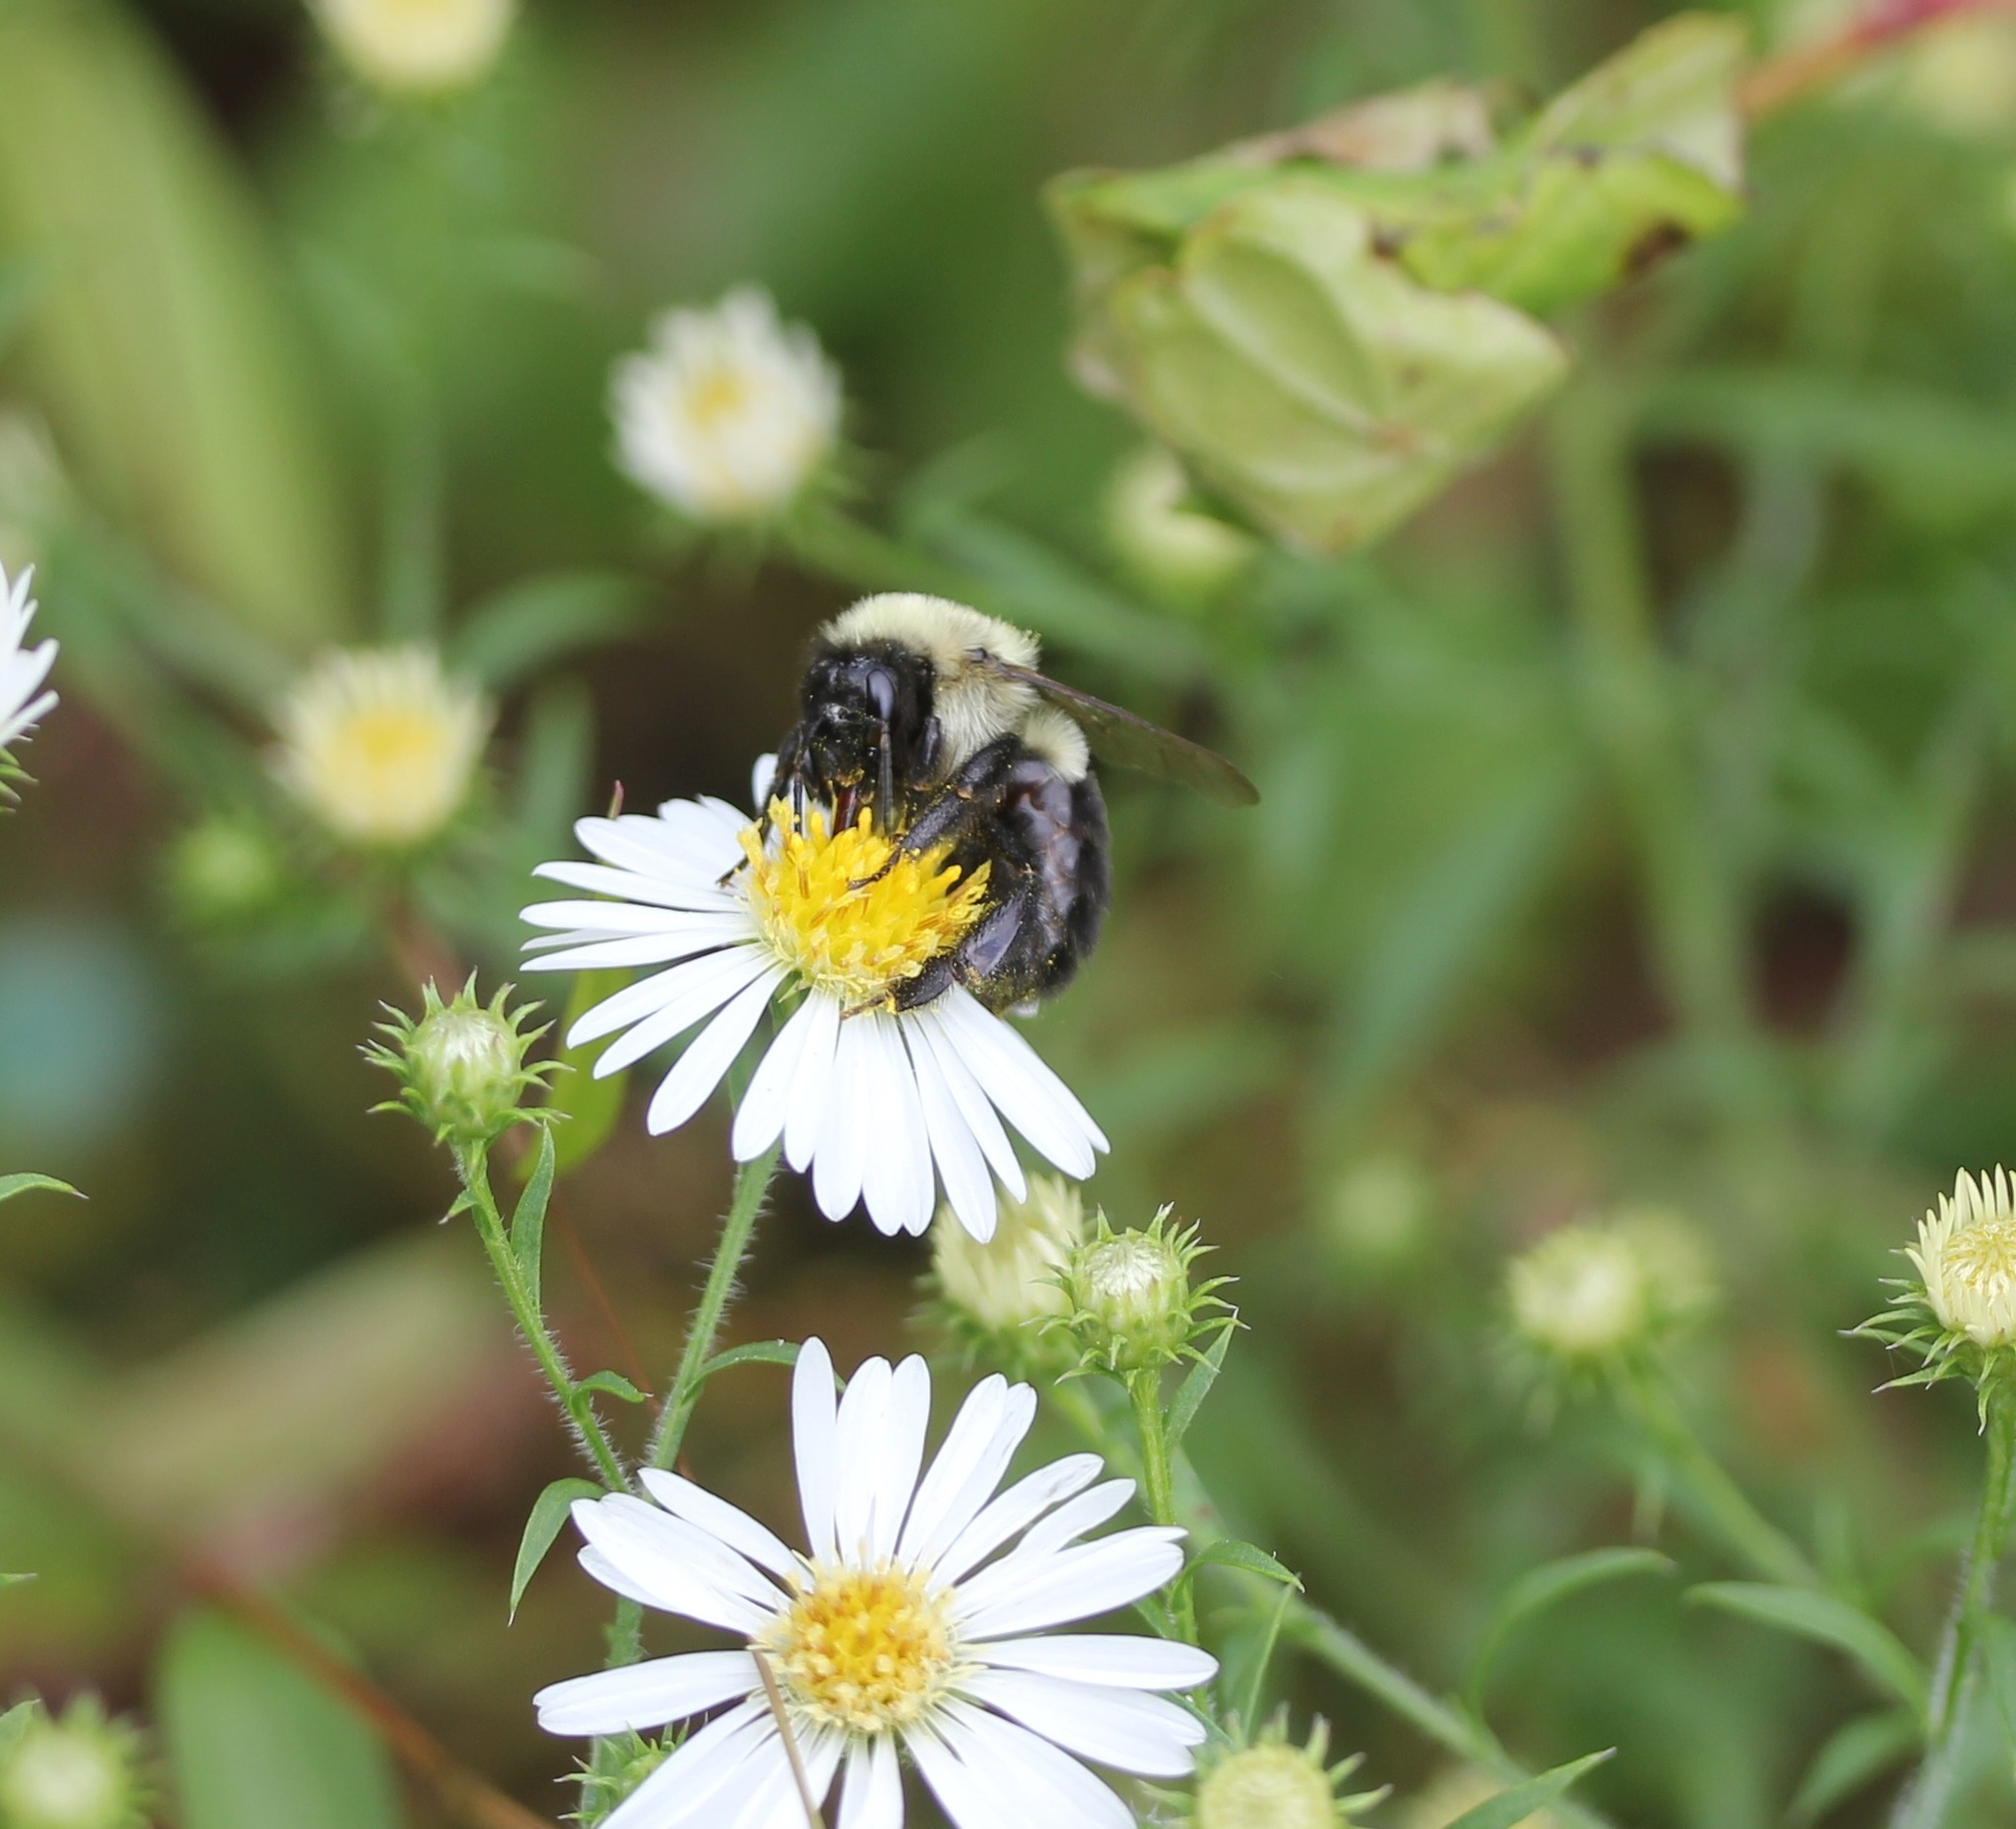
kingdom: Animalia
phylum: Arthropoda
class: Insecta
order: Hymenoptera
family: Apidae
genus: Bombus
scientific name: Bombus impatiens
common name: Common eastern bumble bee
